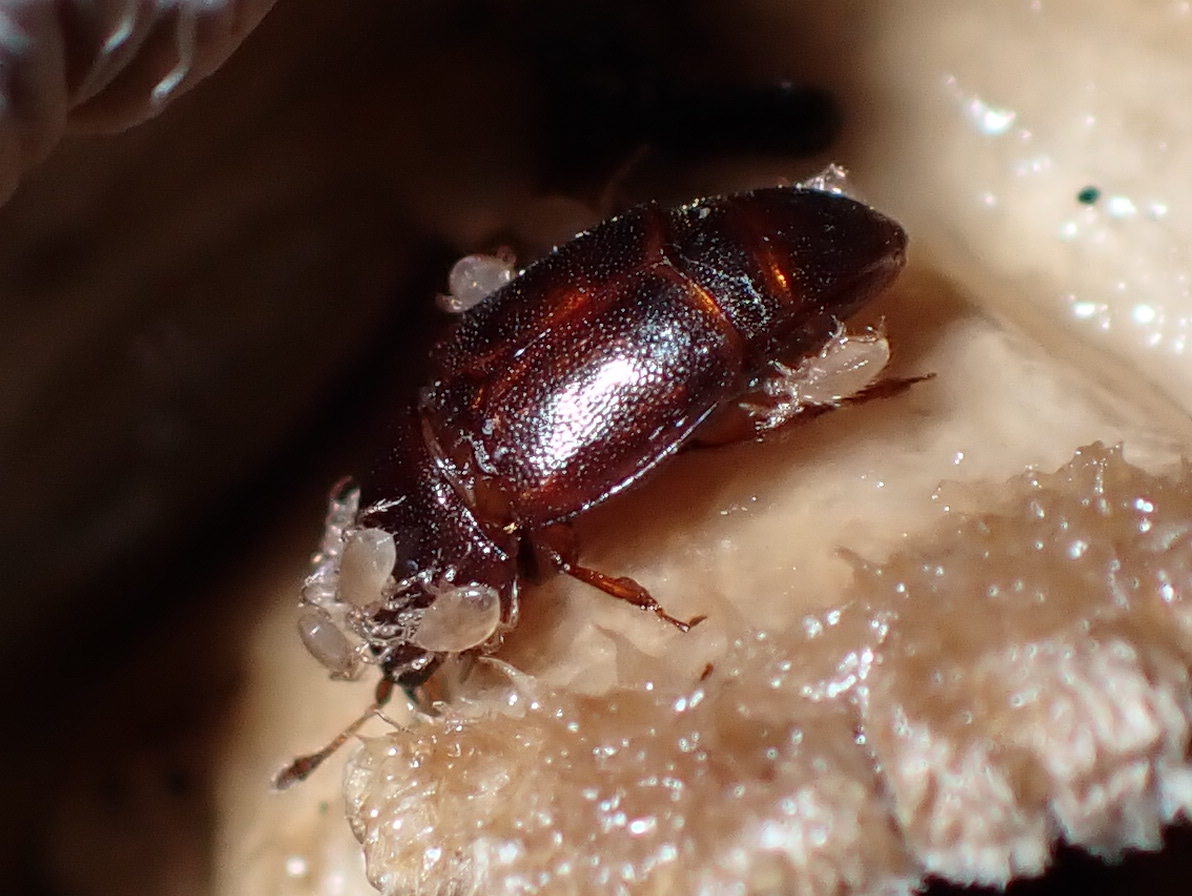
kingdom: Animalia
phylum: Arthropoda
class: Insecta
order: Coleoptera
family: Nitidulidae
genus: Carpophilus
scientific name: Carpophilus marginellus
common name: Sap beetle
